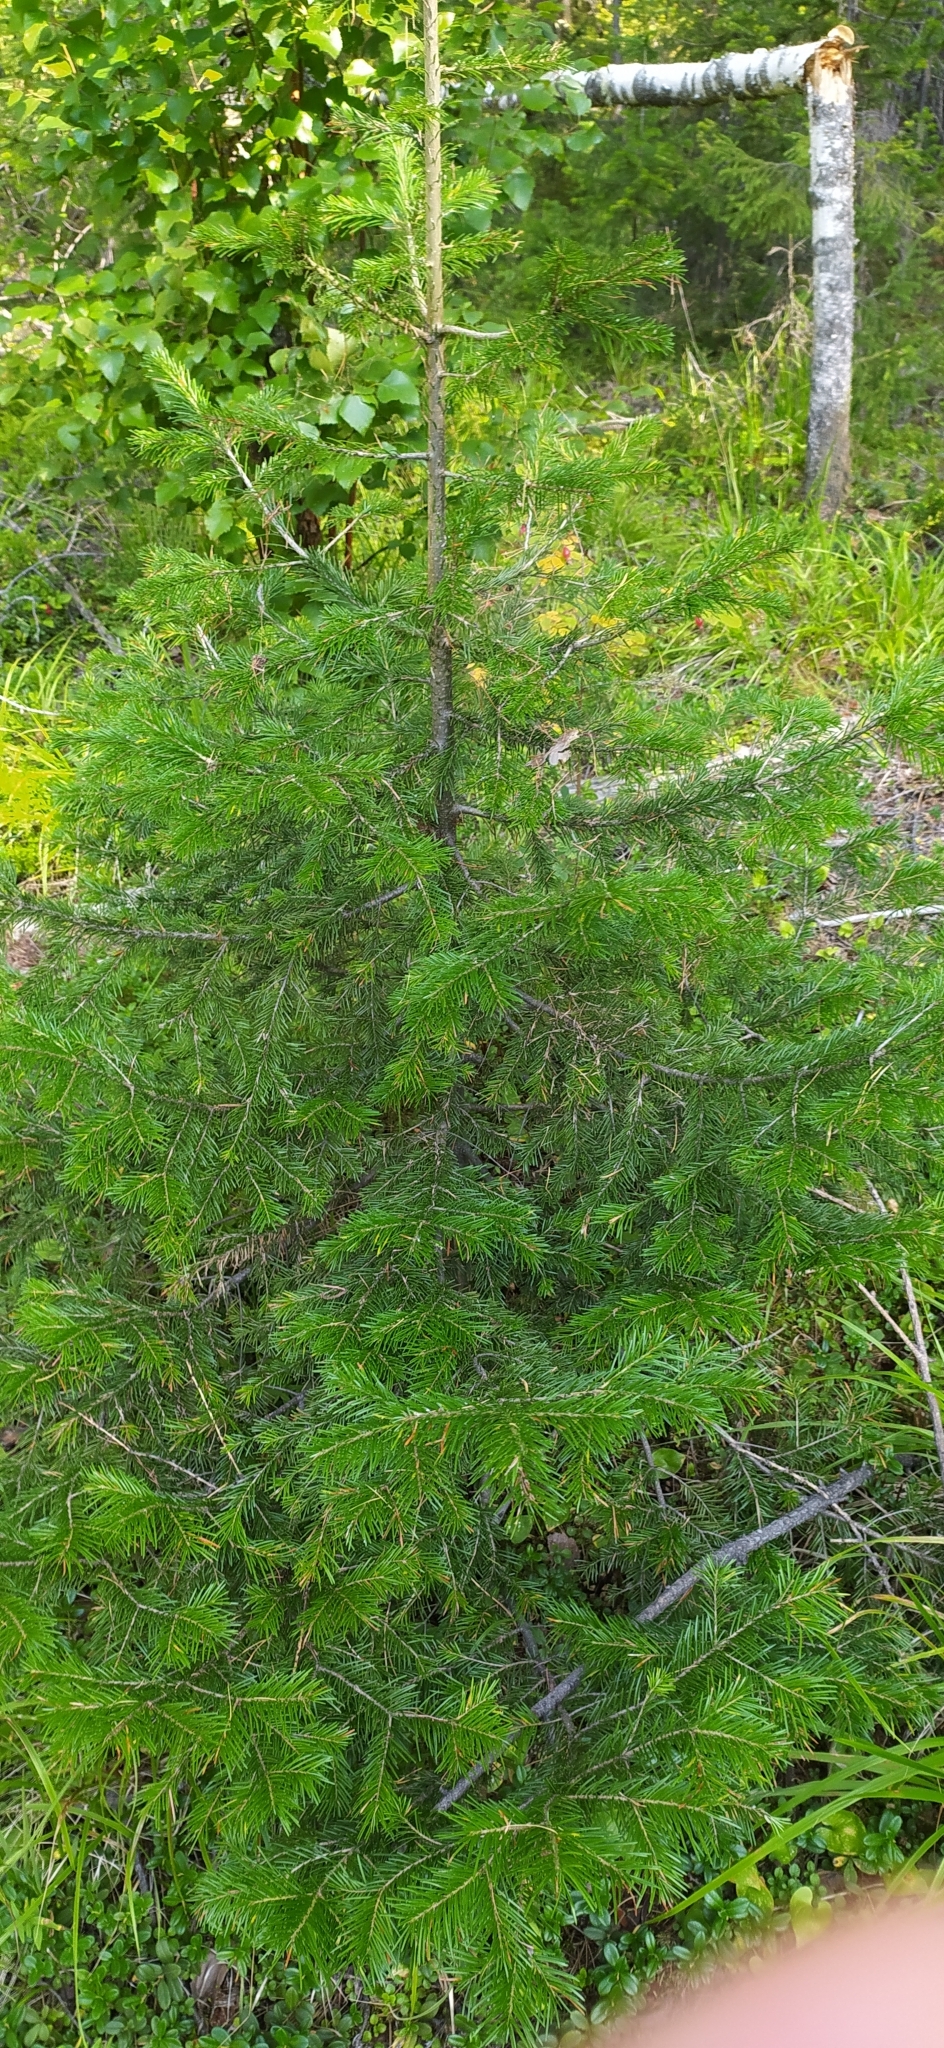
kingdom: Plantae
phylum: Tracheophyta
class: Pinopsida
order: Pinales
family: Pinaceae
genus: Abies
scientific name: Abies sibirica
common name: Siberian fir
